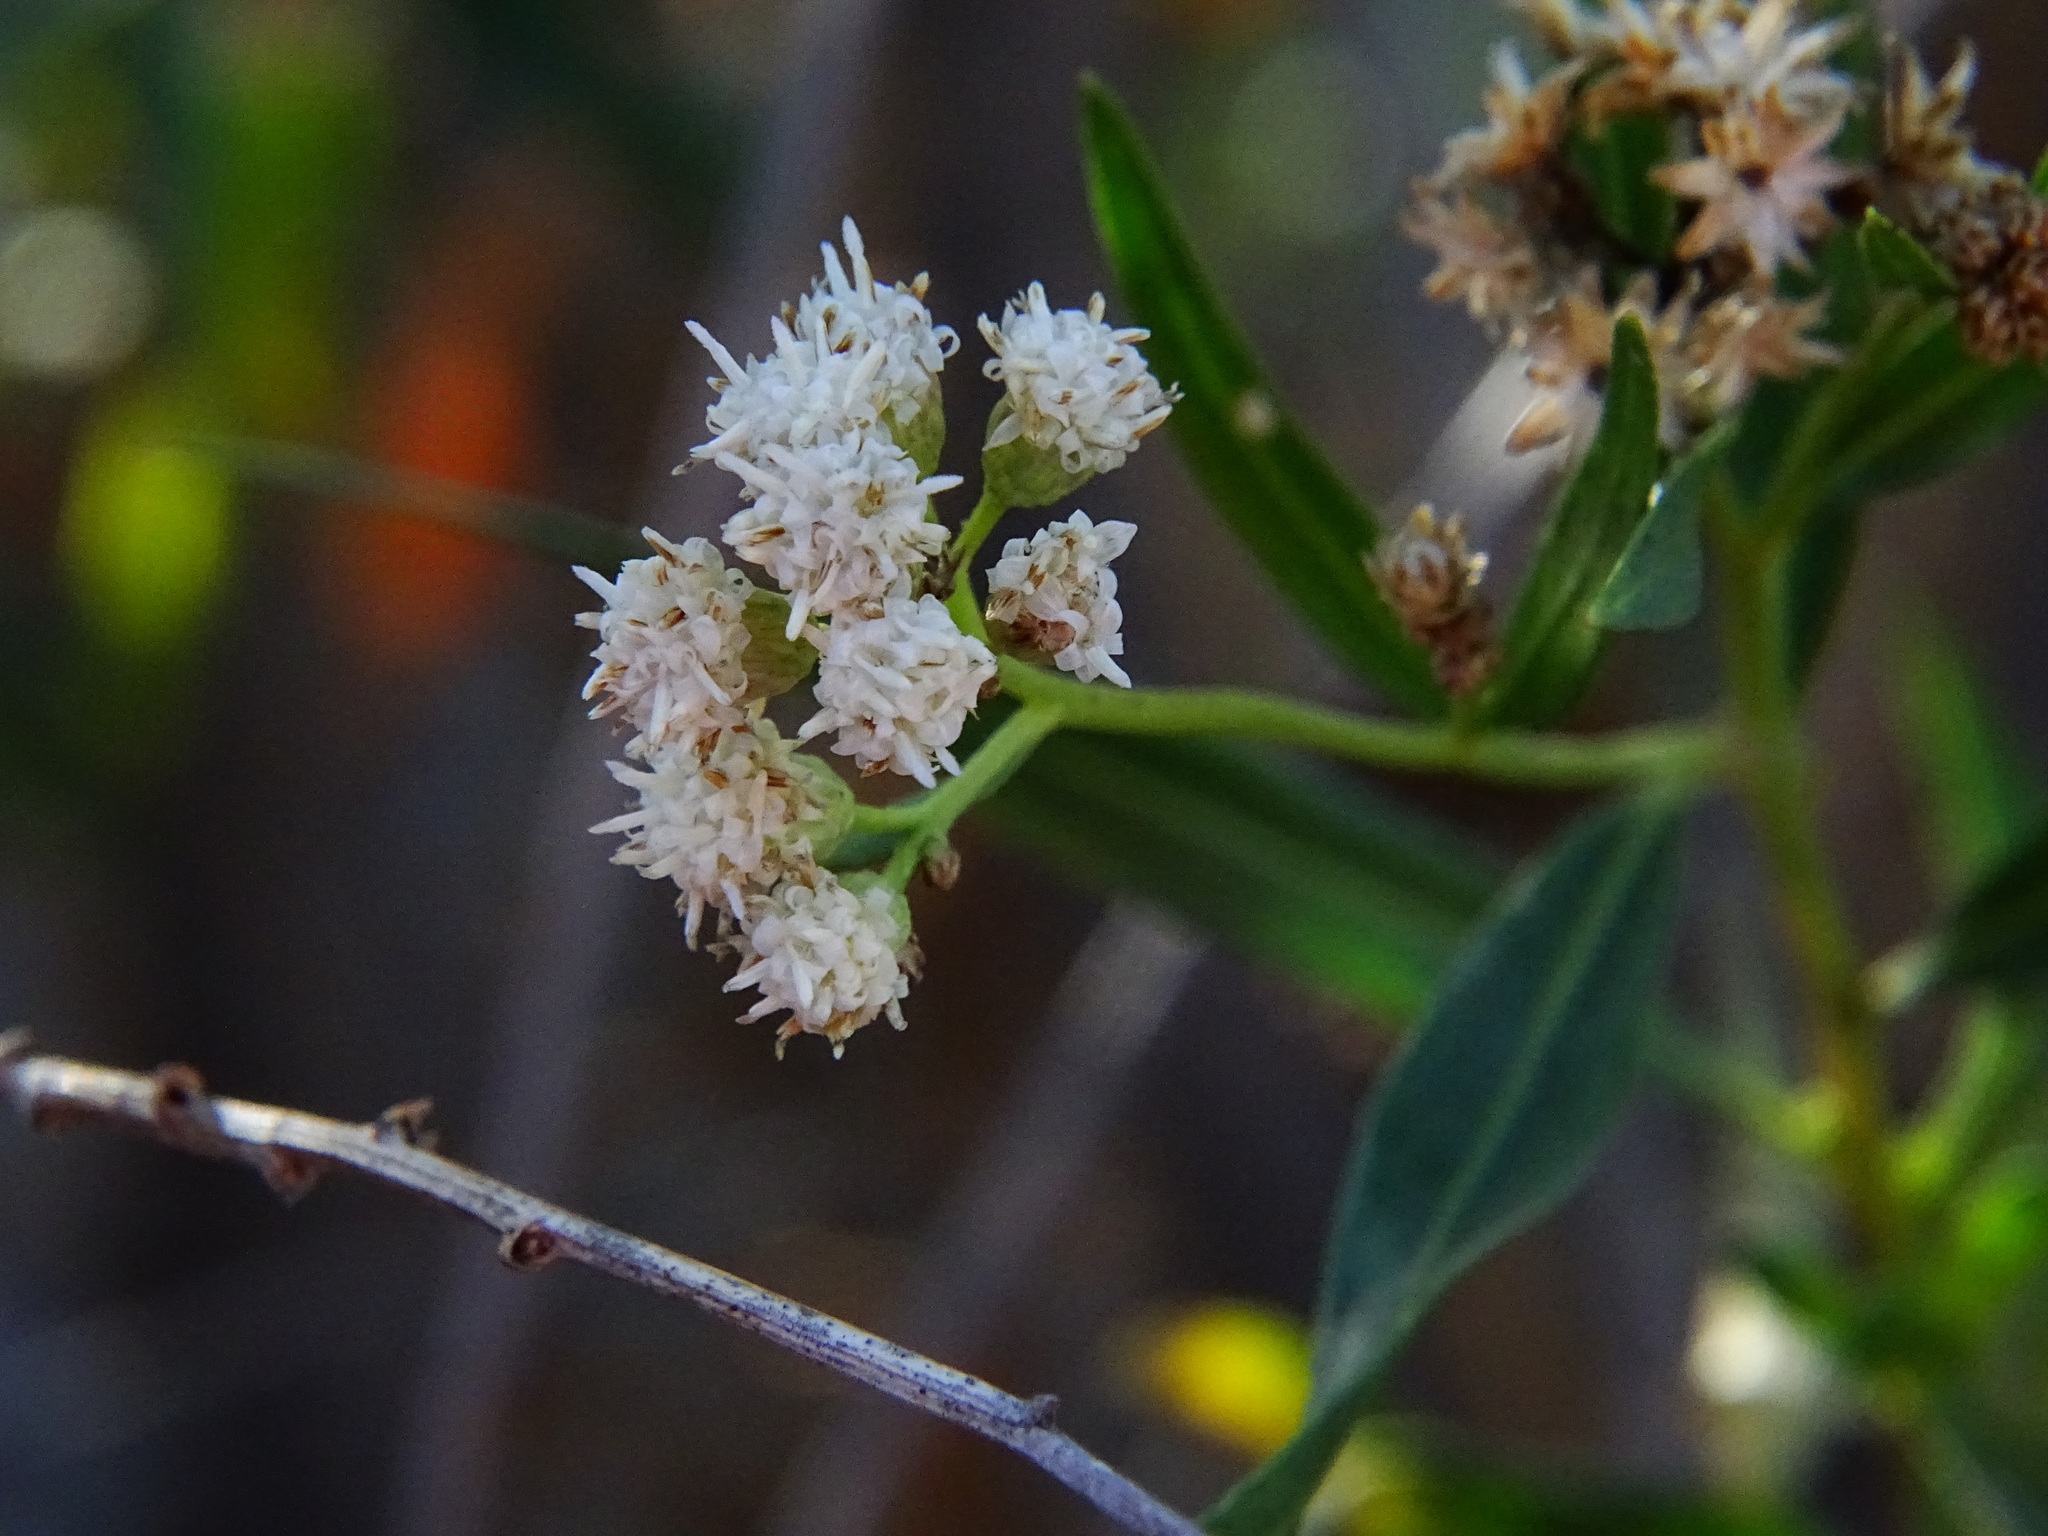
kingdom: Plantae
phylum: Tracheophyta
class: Magnoliopsida
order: Asterales
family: Asteraceae
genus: Baccharis
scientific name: Baccharis salicifolia
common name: Sticky baccharis
